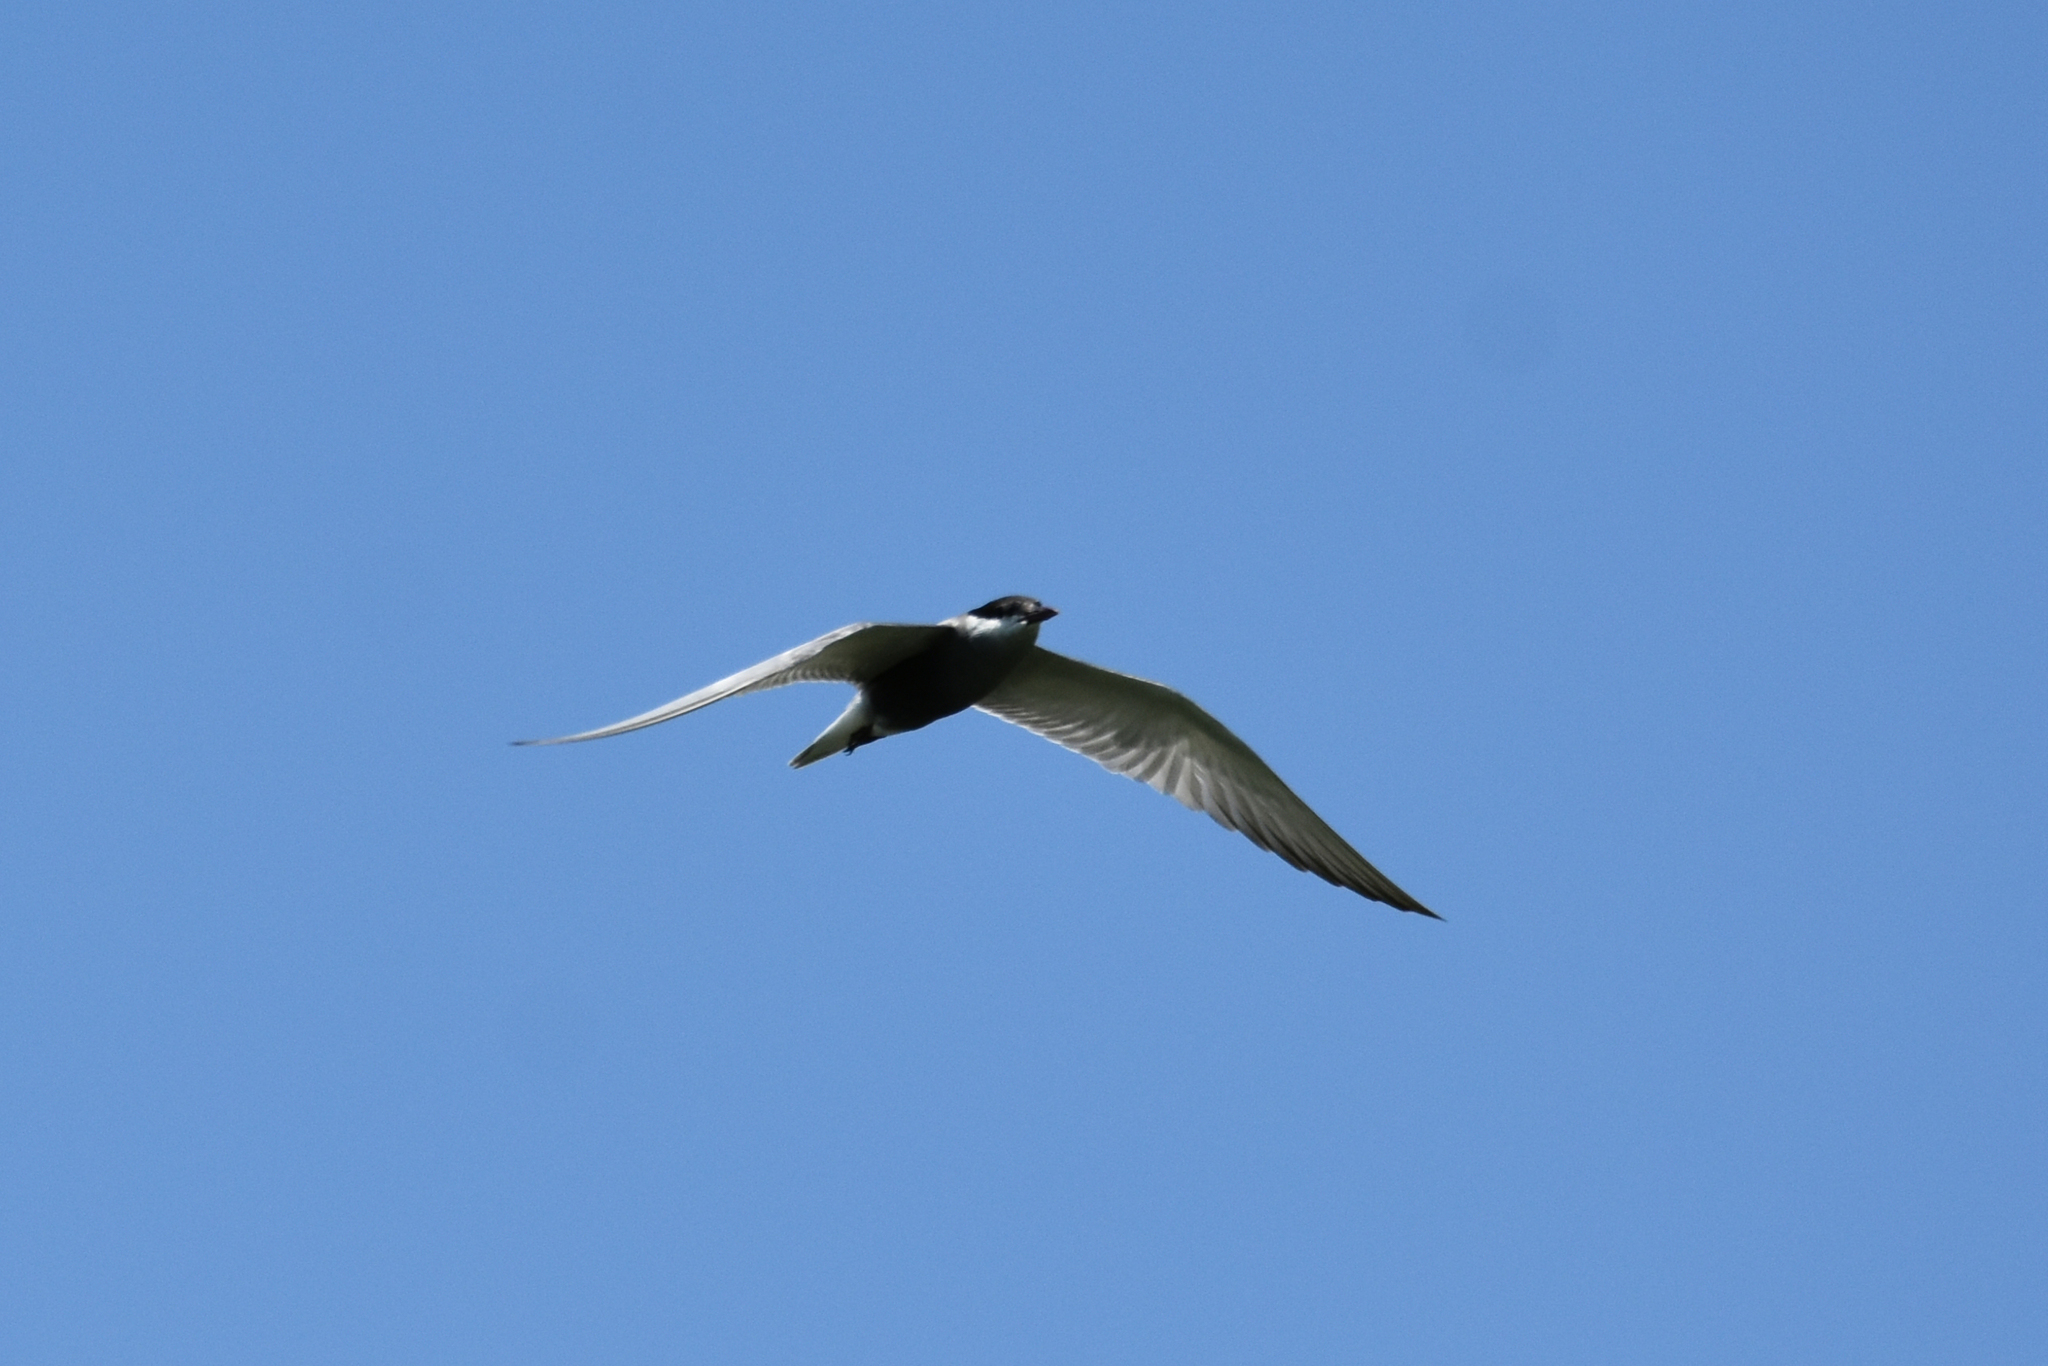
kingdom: Animalia
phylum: Chordata
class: Aves
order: Charadriiformes
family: Laridae
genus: Chlidonias
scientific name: Chlidonias hybrida
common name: Whiskered tern
